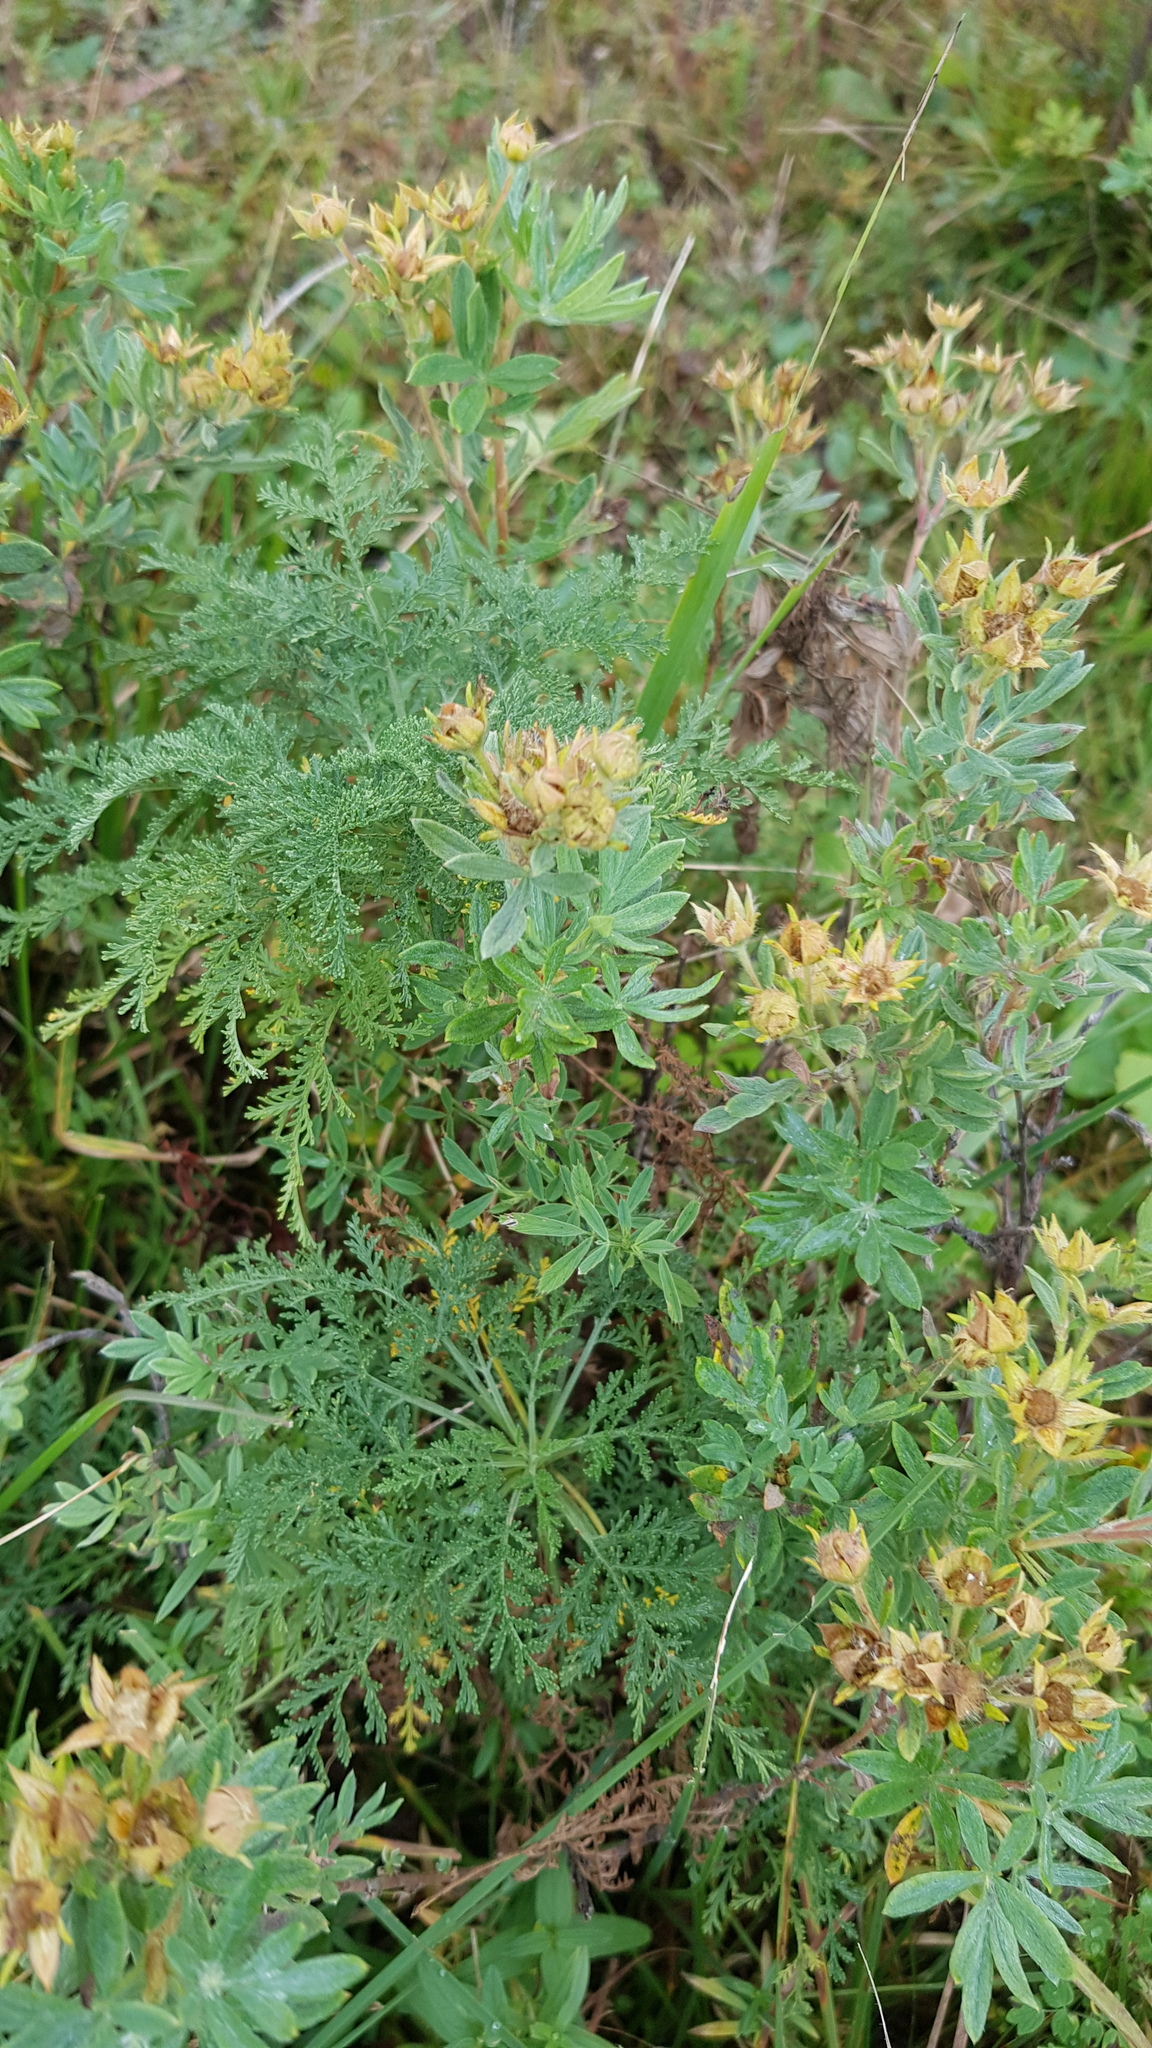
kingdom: Plantae
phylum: Tracheophyta
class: Magnoliopsida
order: Rosales
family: Rosaceae
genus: Dasiphora
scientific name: Dasiphora fruticosa
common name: Shrubby cinquefoil
